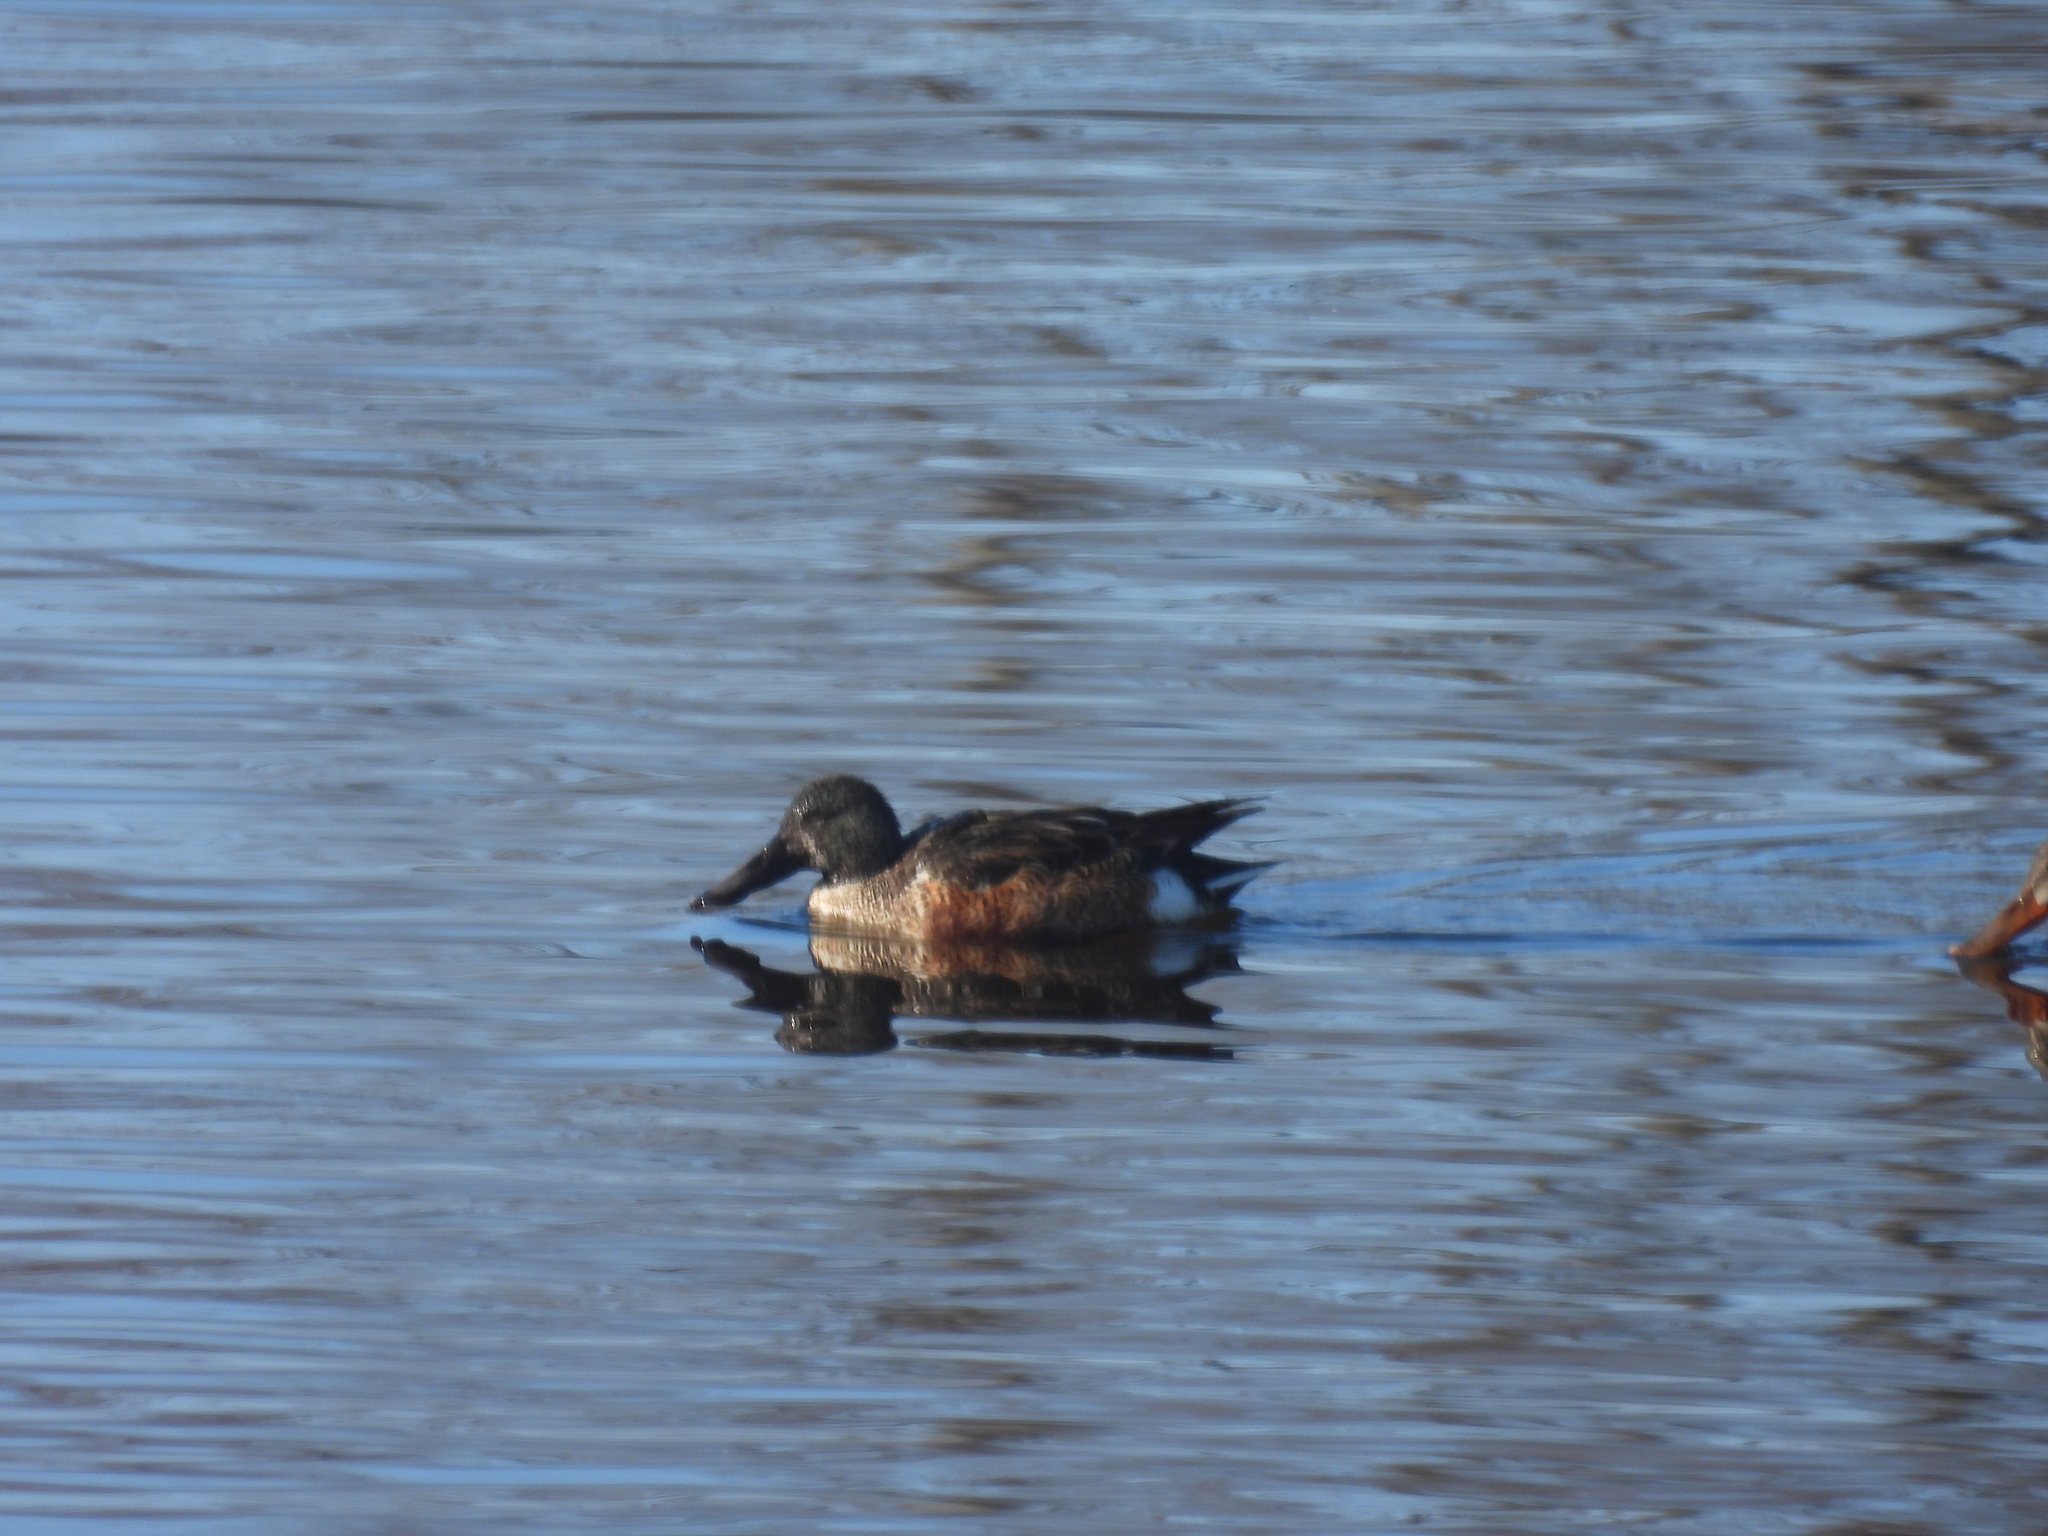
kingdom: Animalia
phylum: Chordata
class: Aves
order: Anseriformes
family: Anatidae
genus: Spatula
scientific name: Spatula clypeata
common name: Northern shoveler
